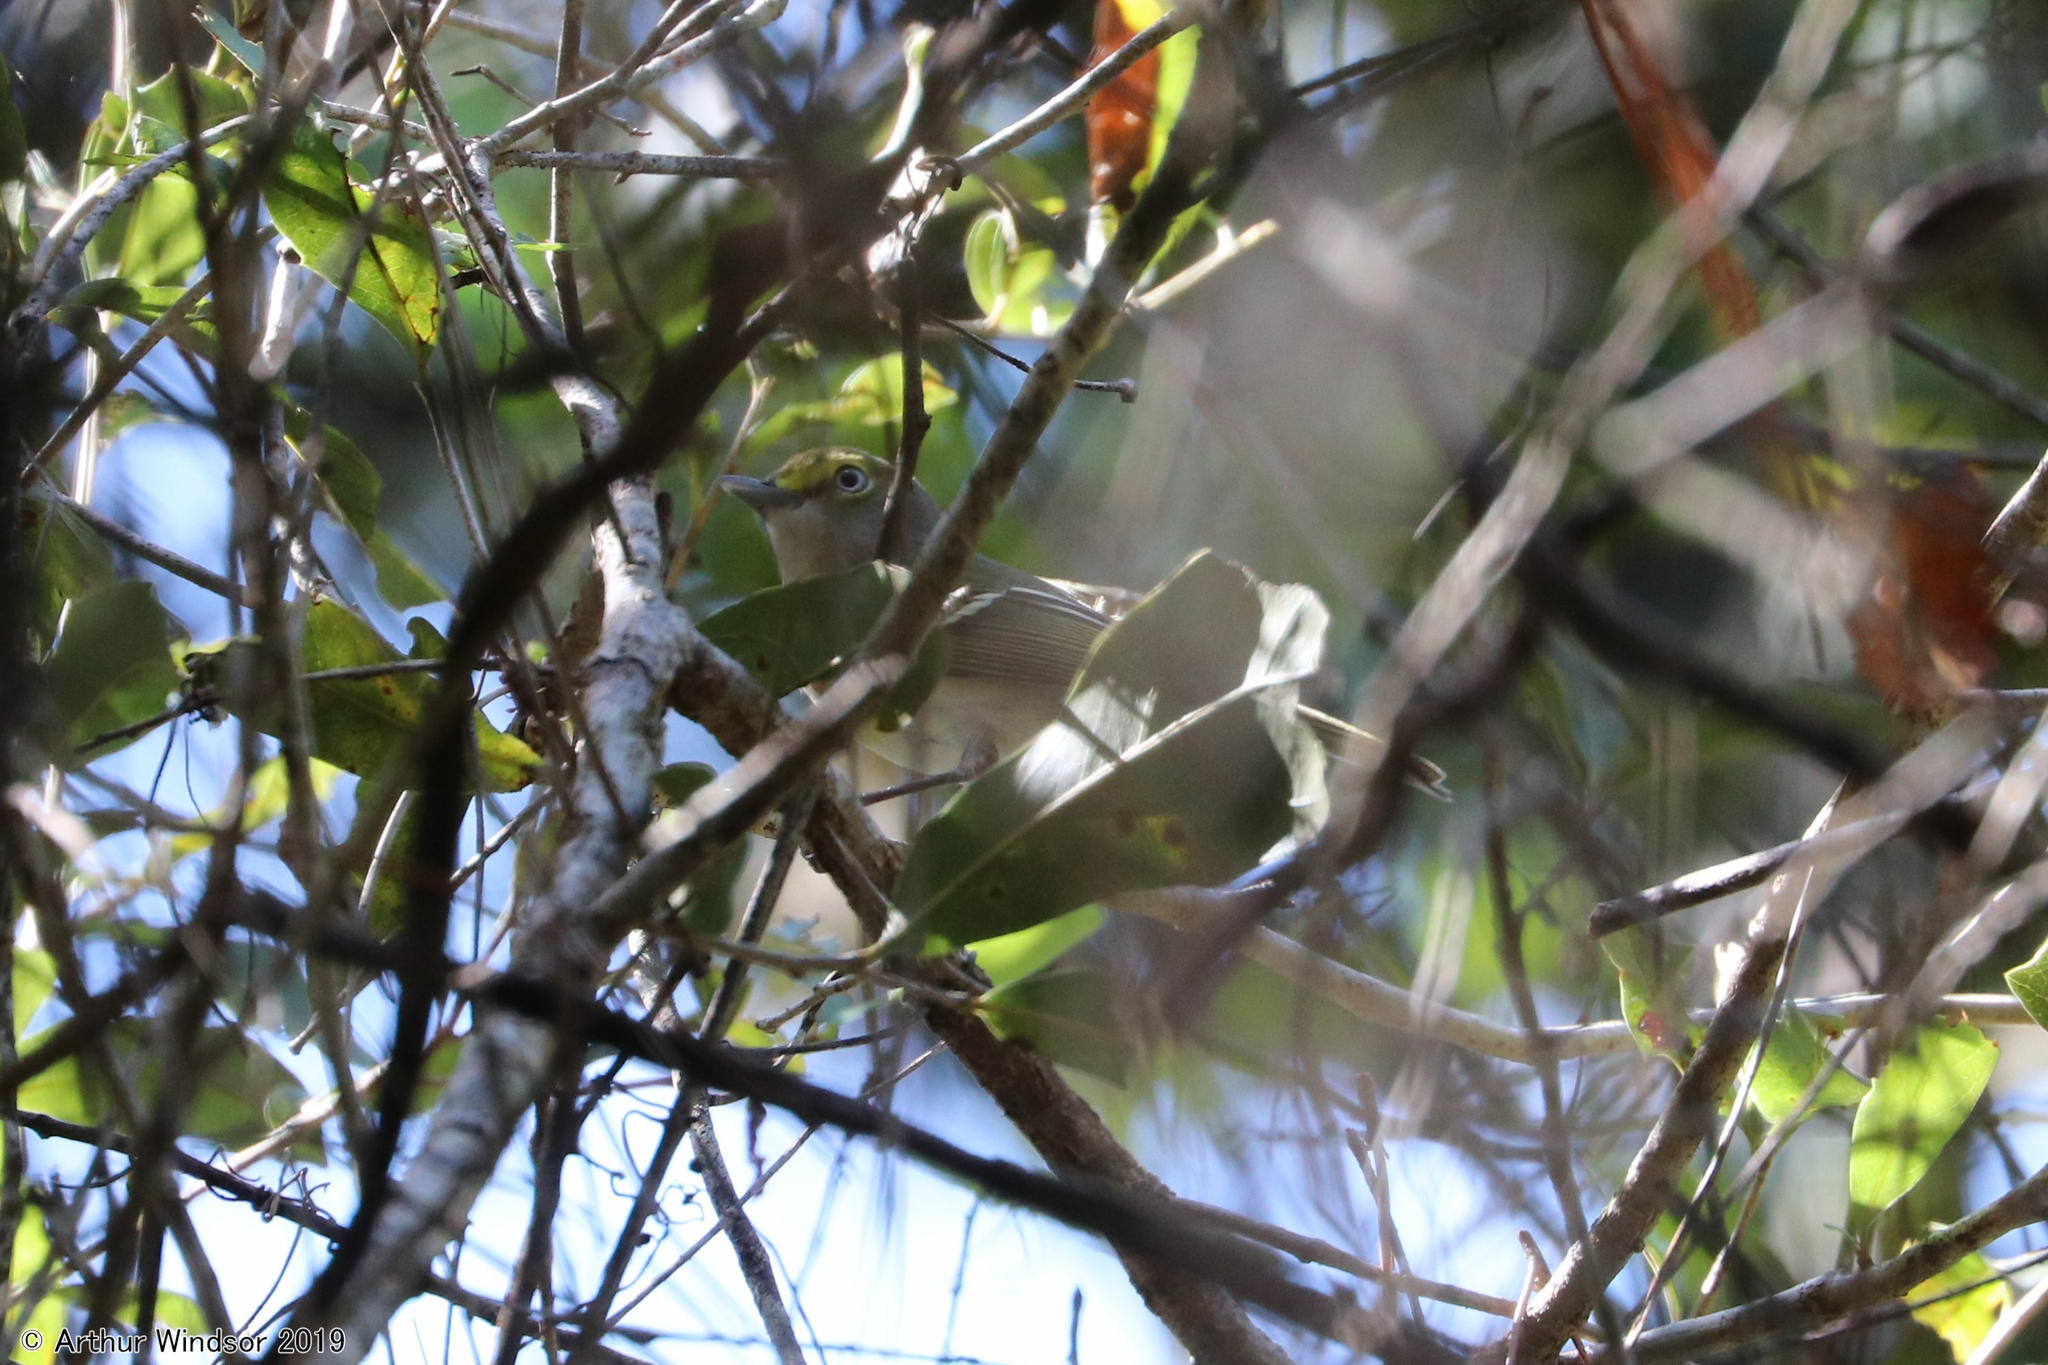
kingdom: Animalia
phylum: Chordata
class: Aves
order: Passeriformes
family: Vireonidae
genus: Vireo
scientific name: Vireo griseus
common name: White-eyed vireo
